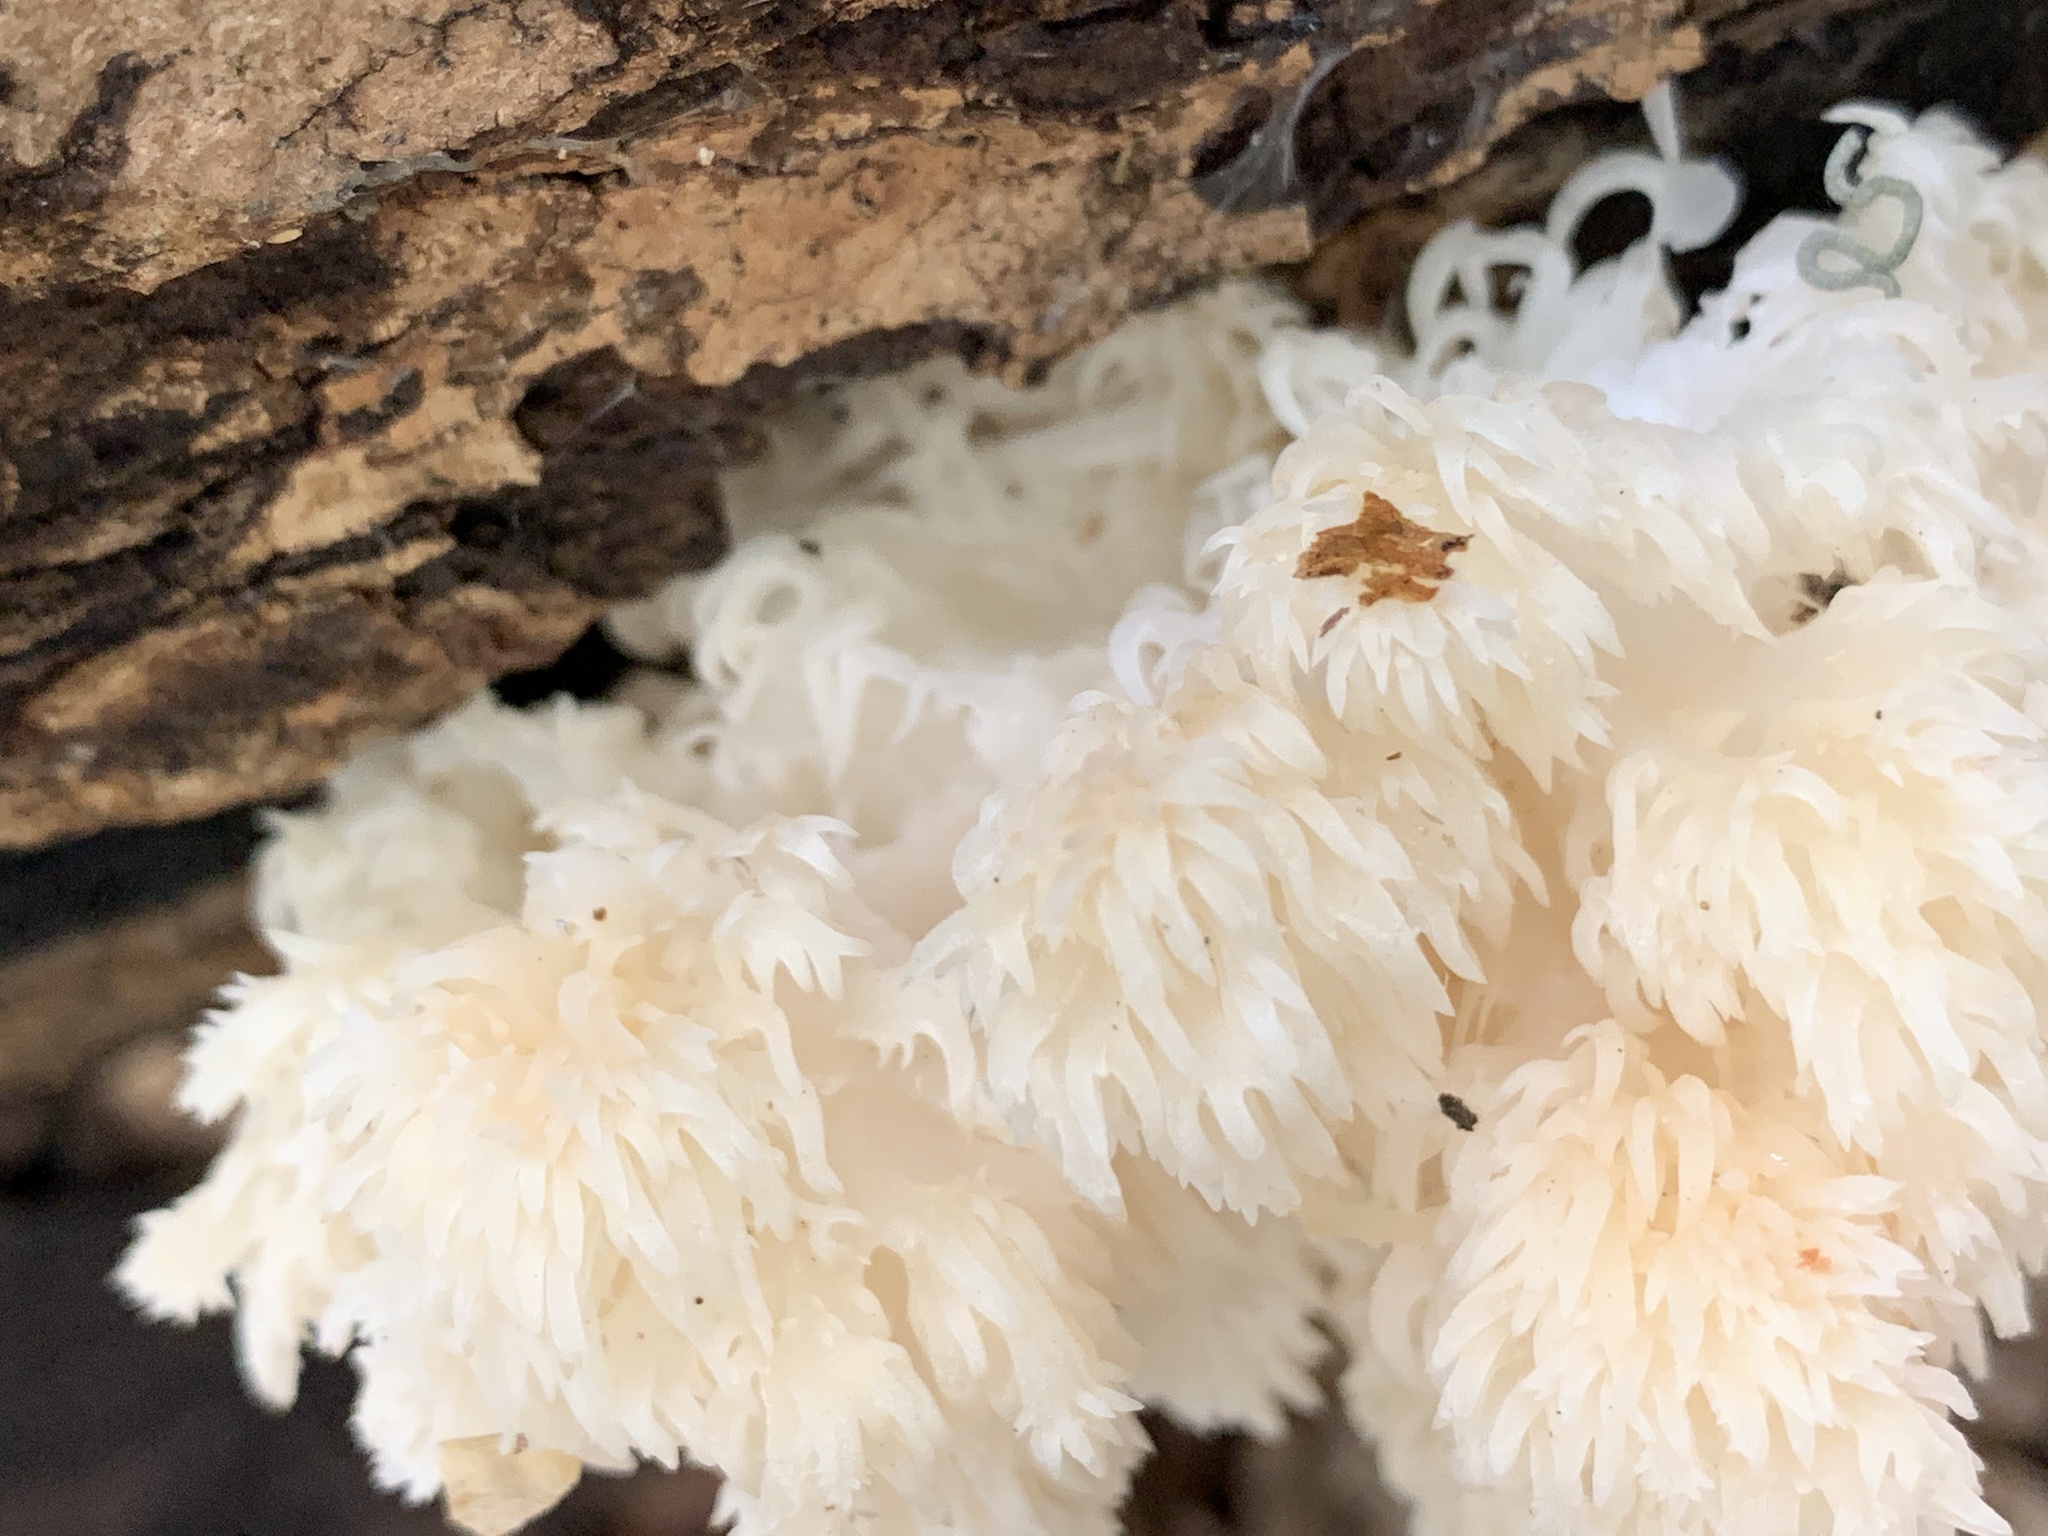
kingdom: Fungi
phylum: Basidiomycota
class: Agaricomycetes
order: Russulales
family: Hericiaceae
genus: Hericium
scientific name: Hericium americanum
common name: Bear's head tooth
